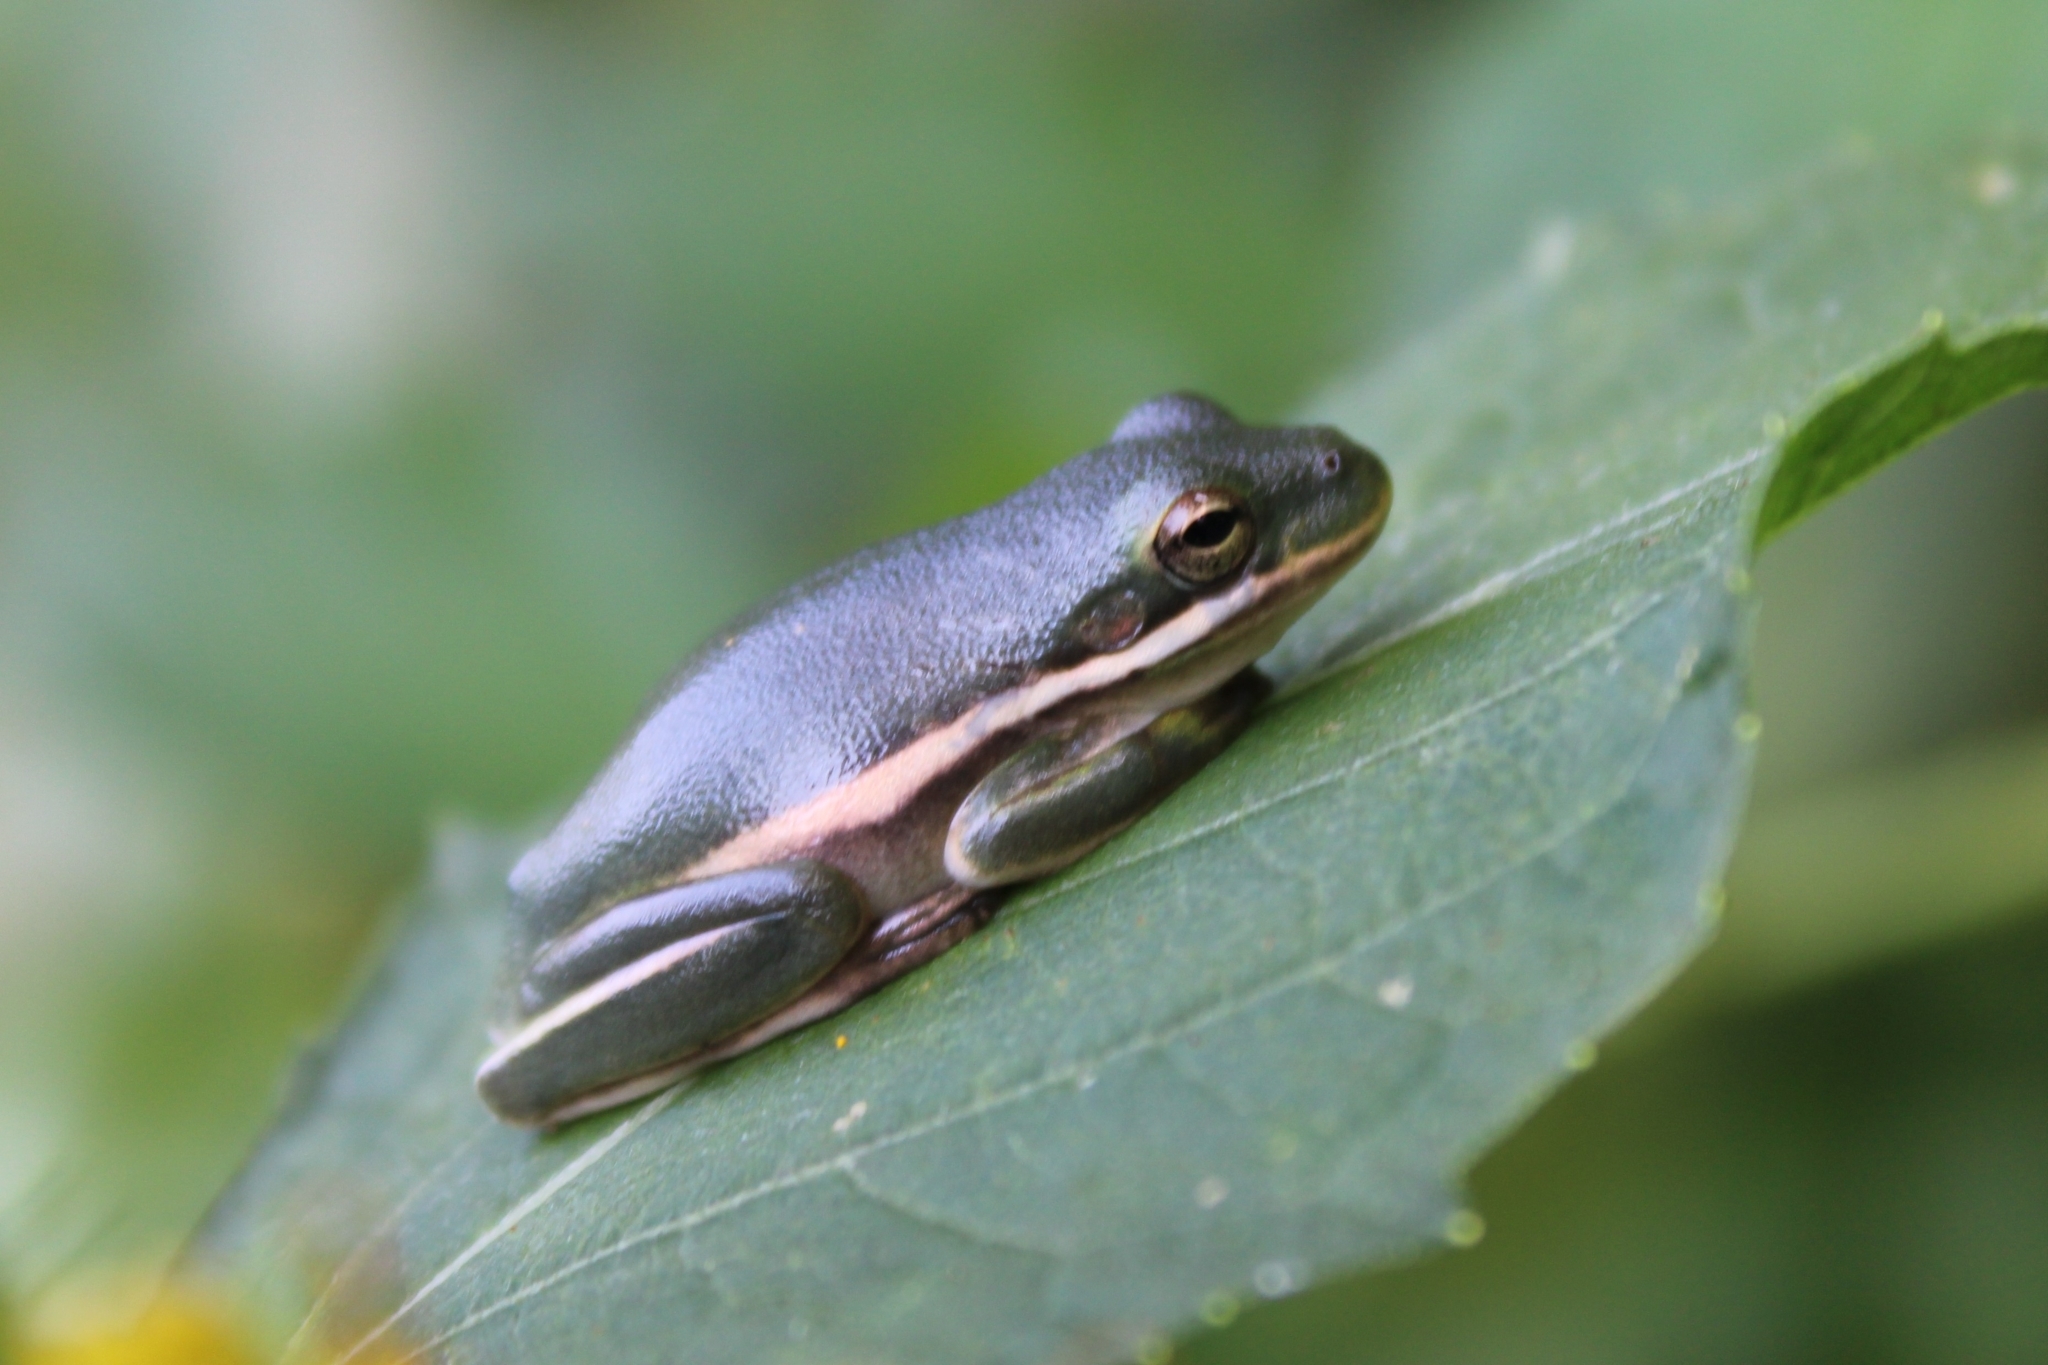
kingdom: Animalia
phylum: Chordata
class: Amphibia
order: Anura
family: Hylidae
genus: Dryophytes
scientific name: Dryophytes cinereus
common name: Green treefrog
